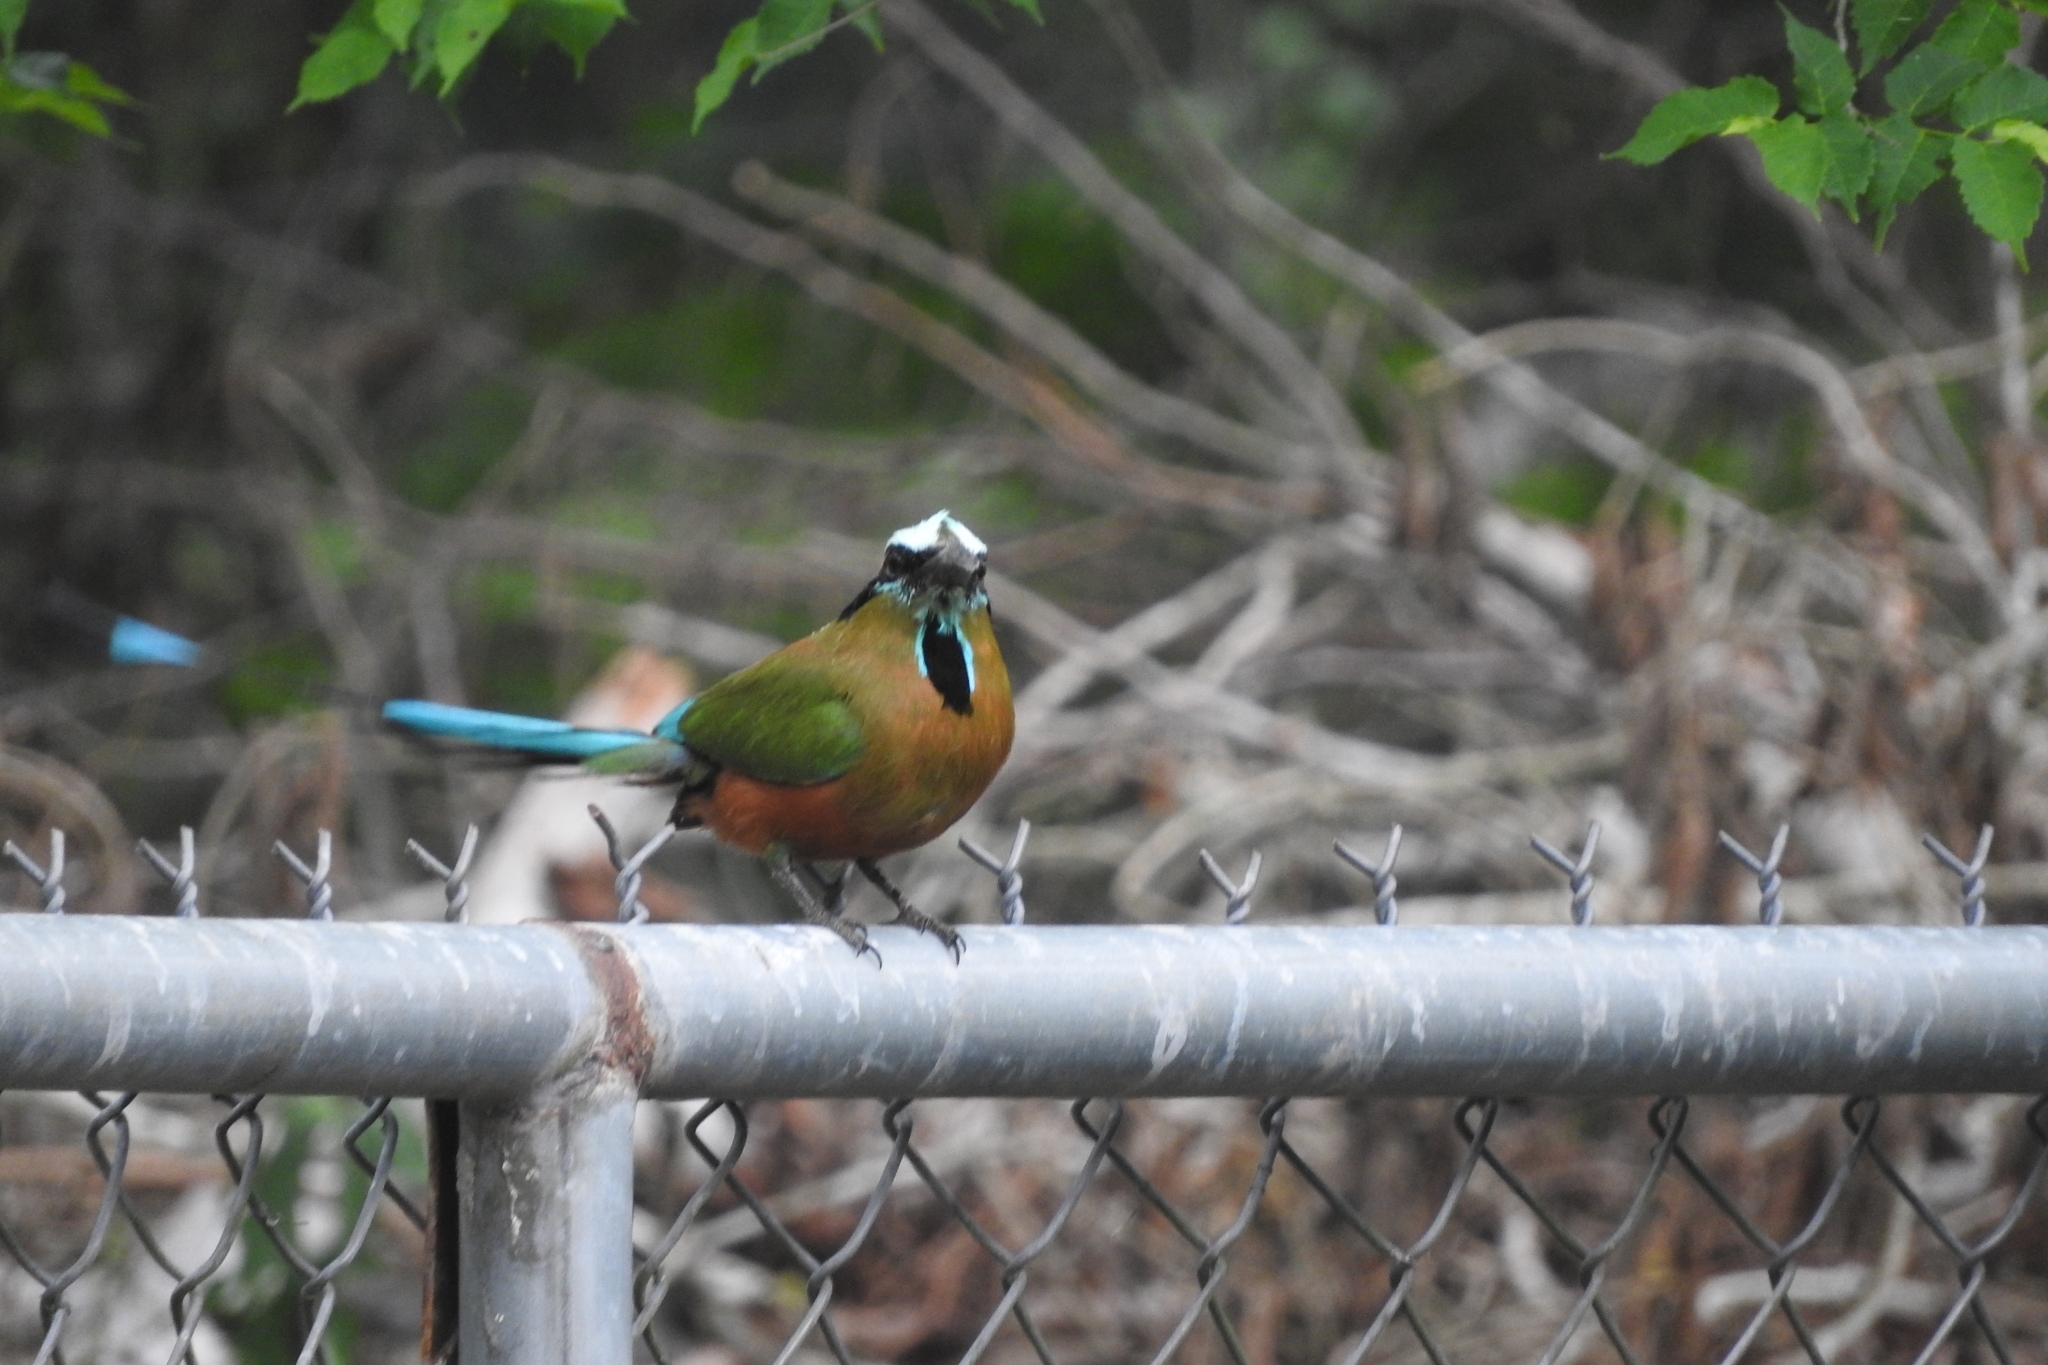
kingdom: Animalia
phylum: Chordata
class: Aves
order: Coraciiformes
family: Momotidae
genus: Eumomota
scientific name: Eumomota superciliosa
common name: Turquoise-browed motmot
